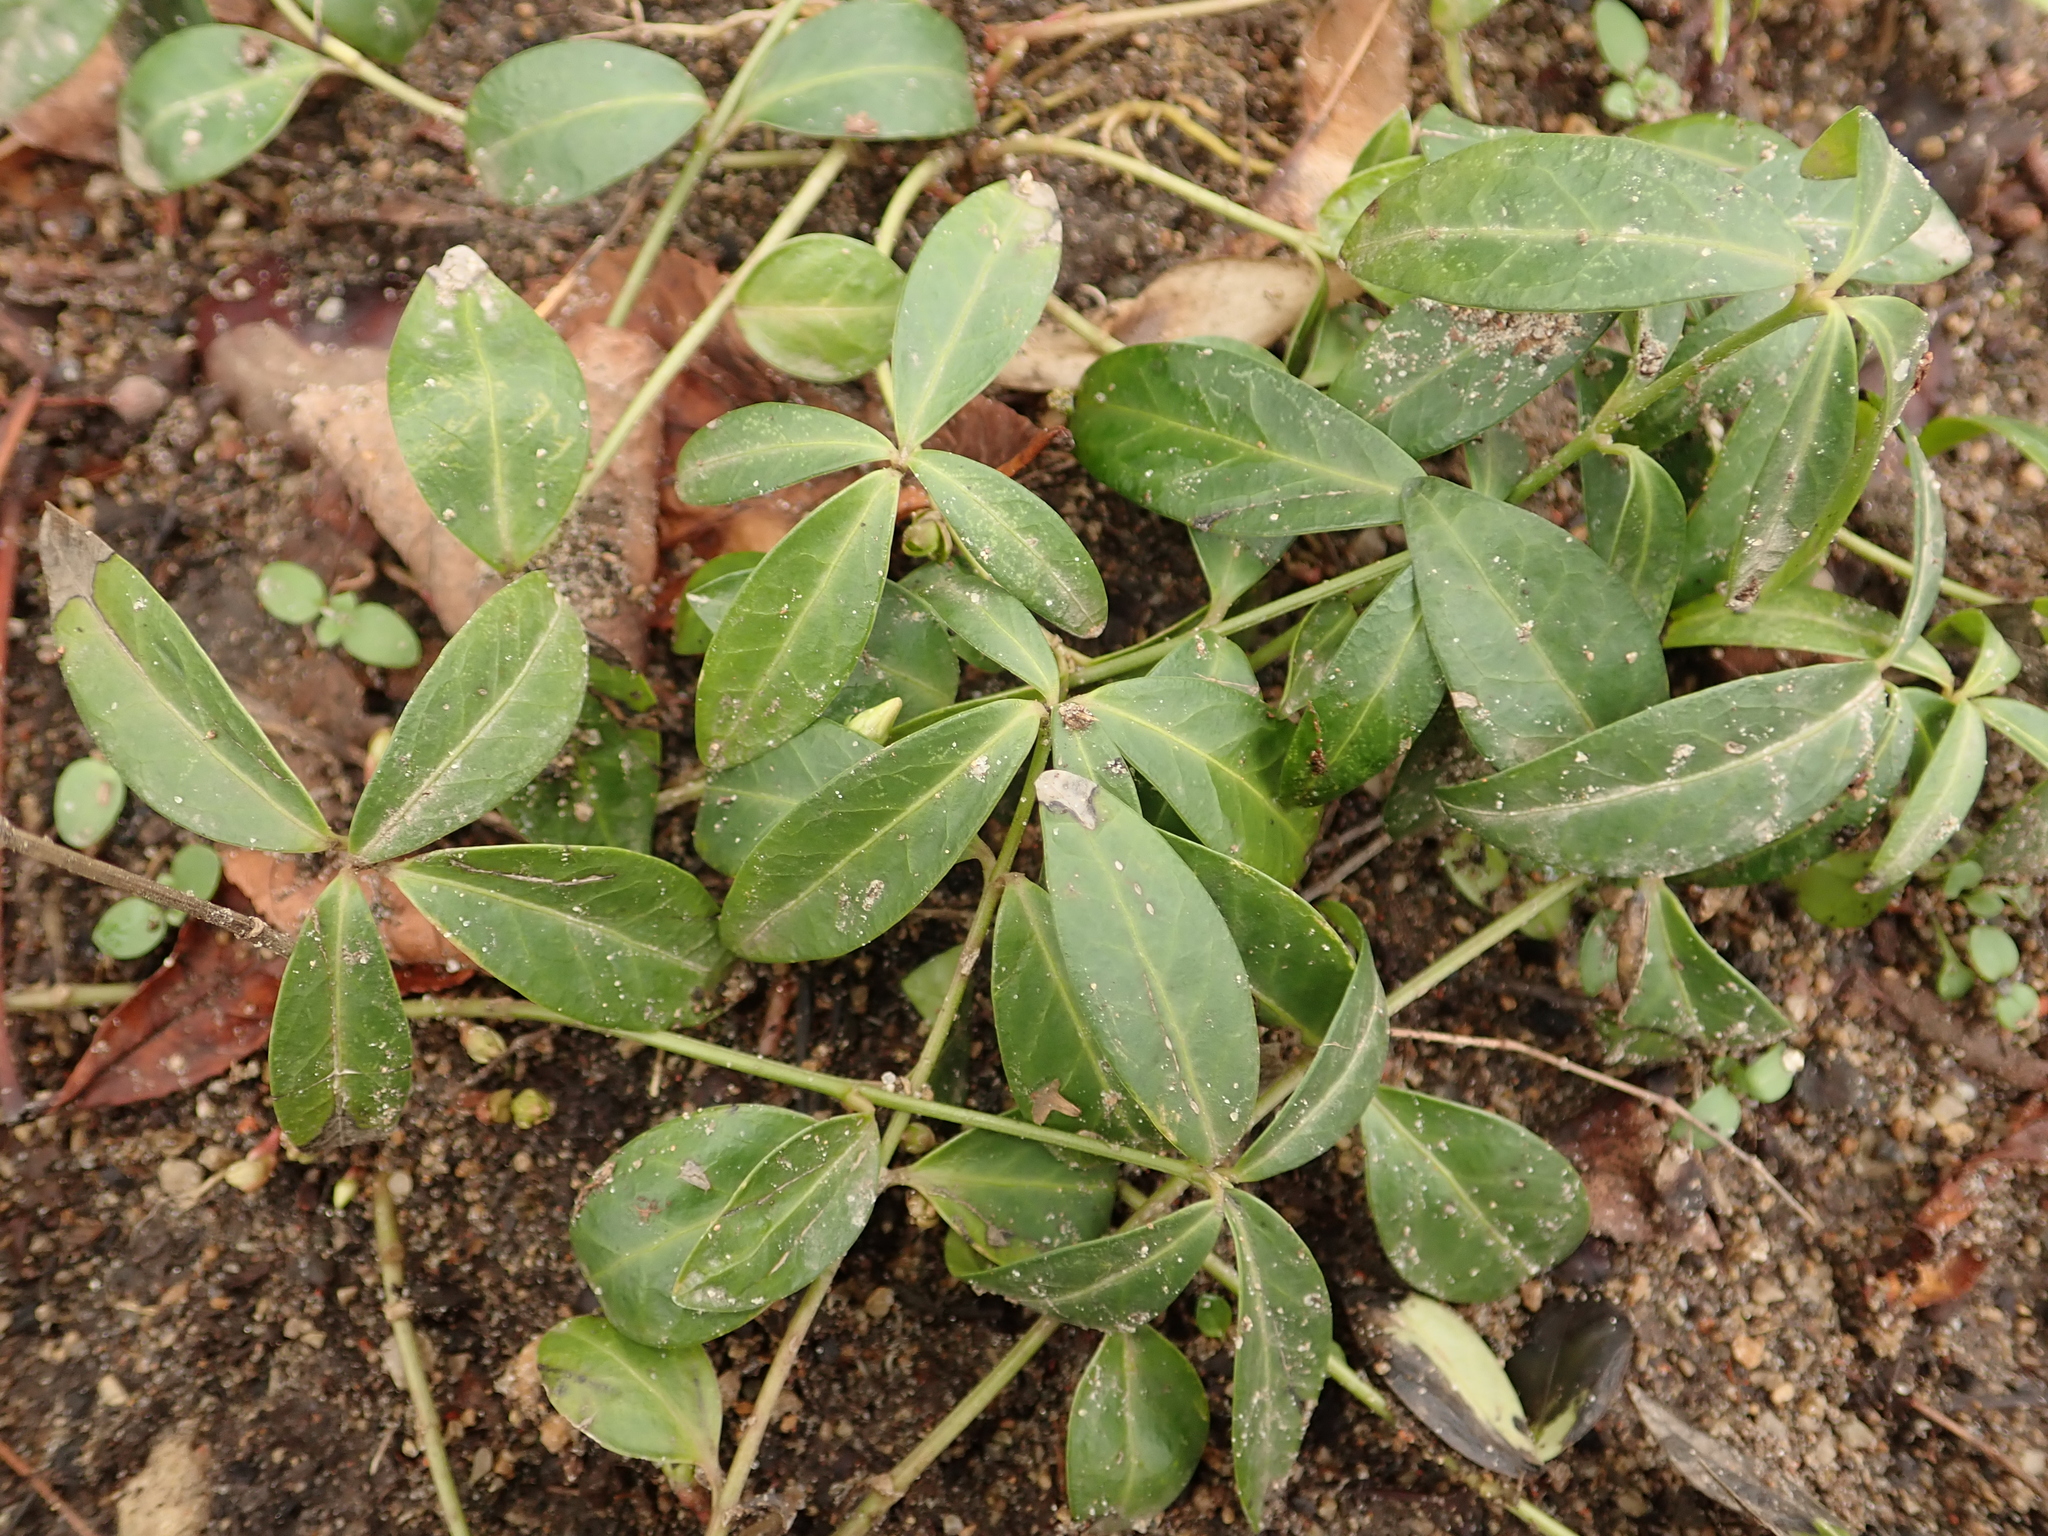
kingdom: Plantae
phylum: Tracheophyta
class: Magnoliopsida
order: Gentianales
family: Apocynaceae
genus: Vinca
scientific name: Vinca minor
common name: Lesser periwinkle
